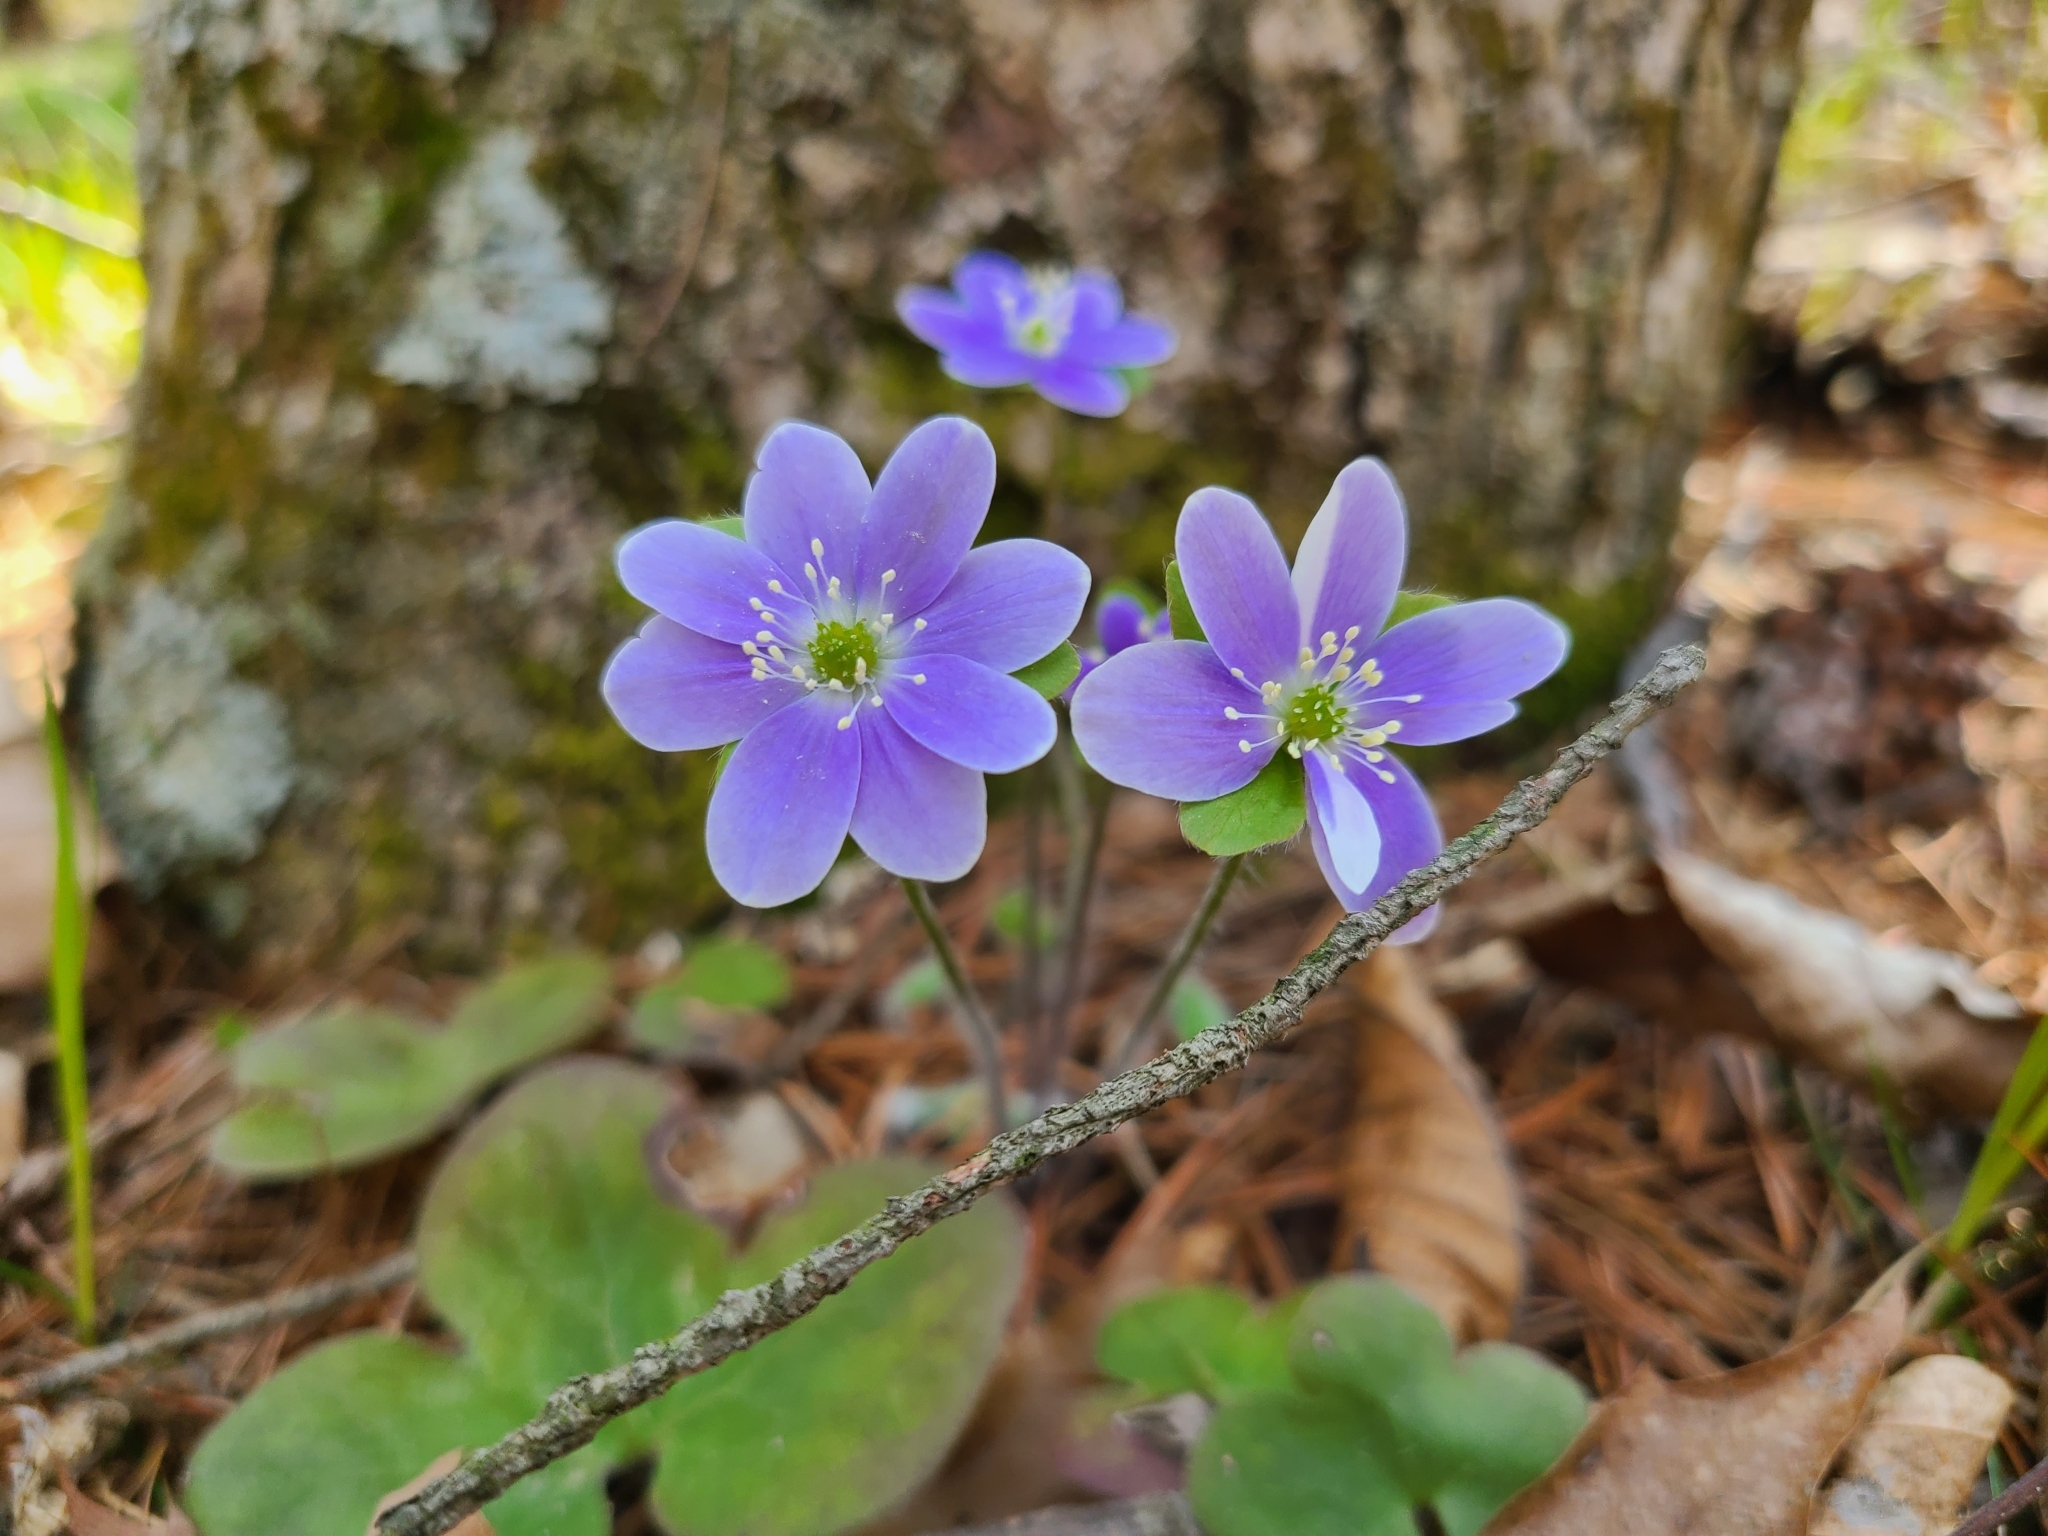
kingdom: Plantae
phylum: Tracheophyta
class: Magnoliopsida
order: Ranunculales
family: Ranunculaceae
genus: Hepatica
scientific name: Hepatica americana
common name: American hepatica
